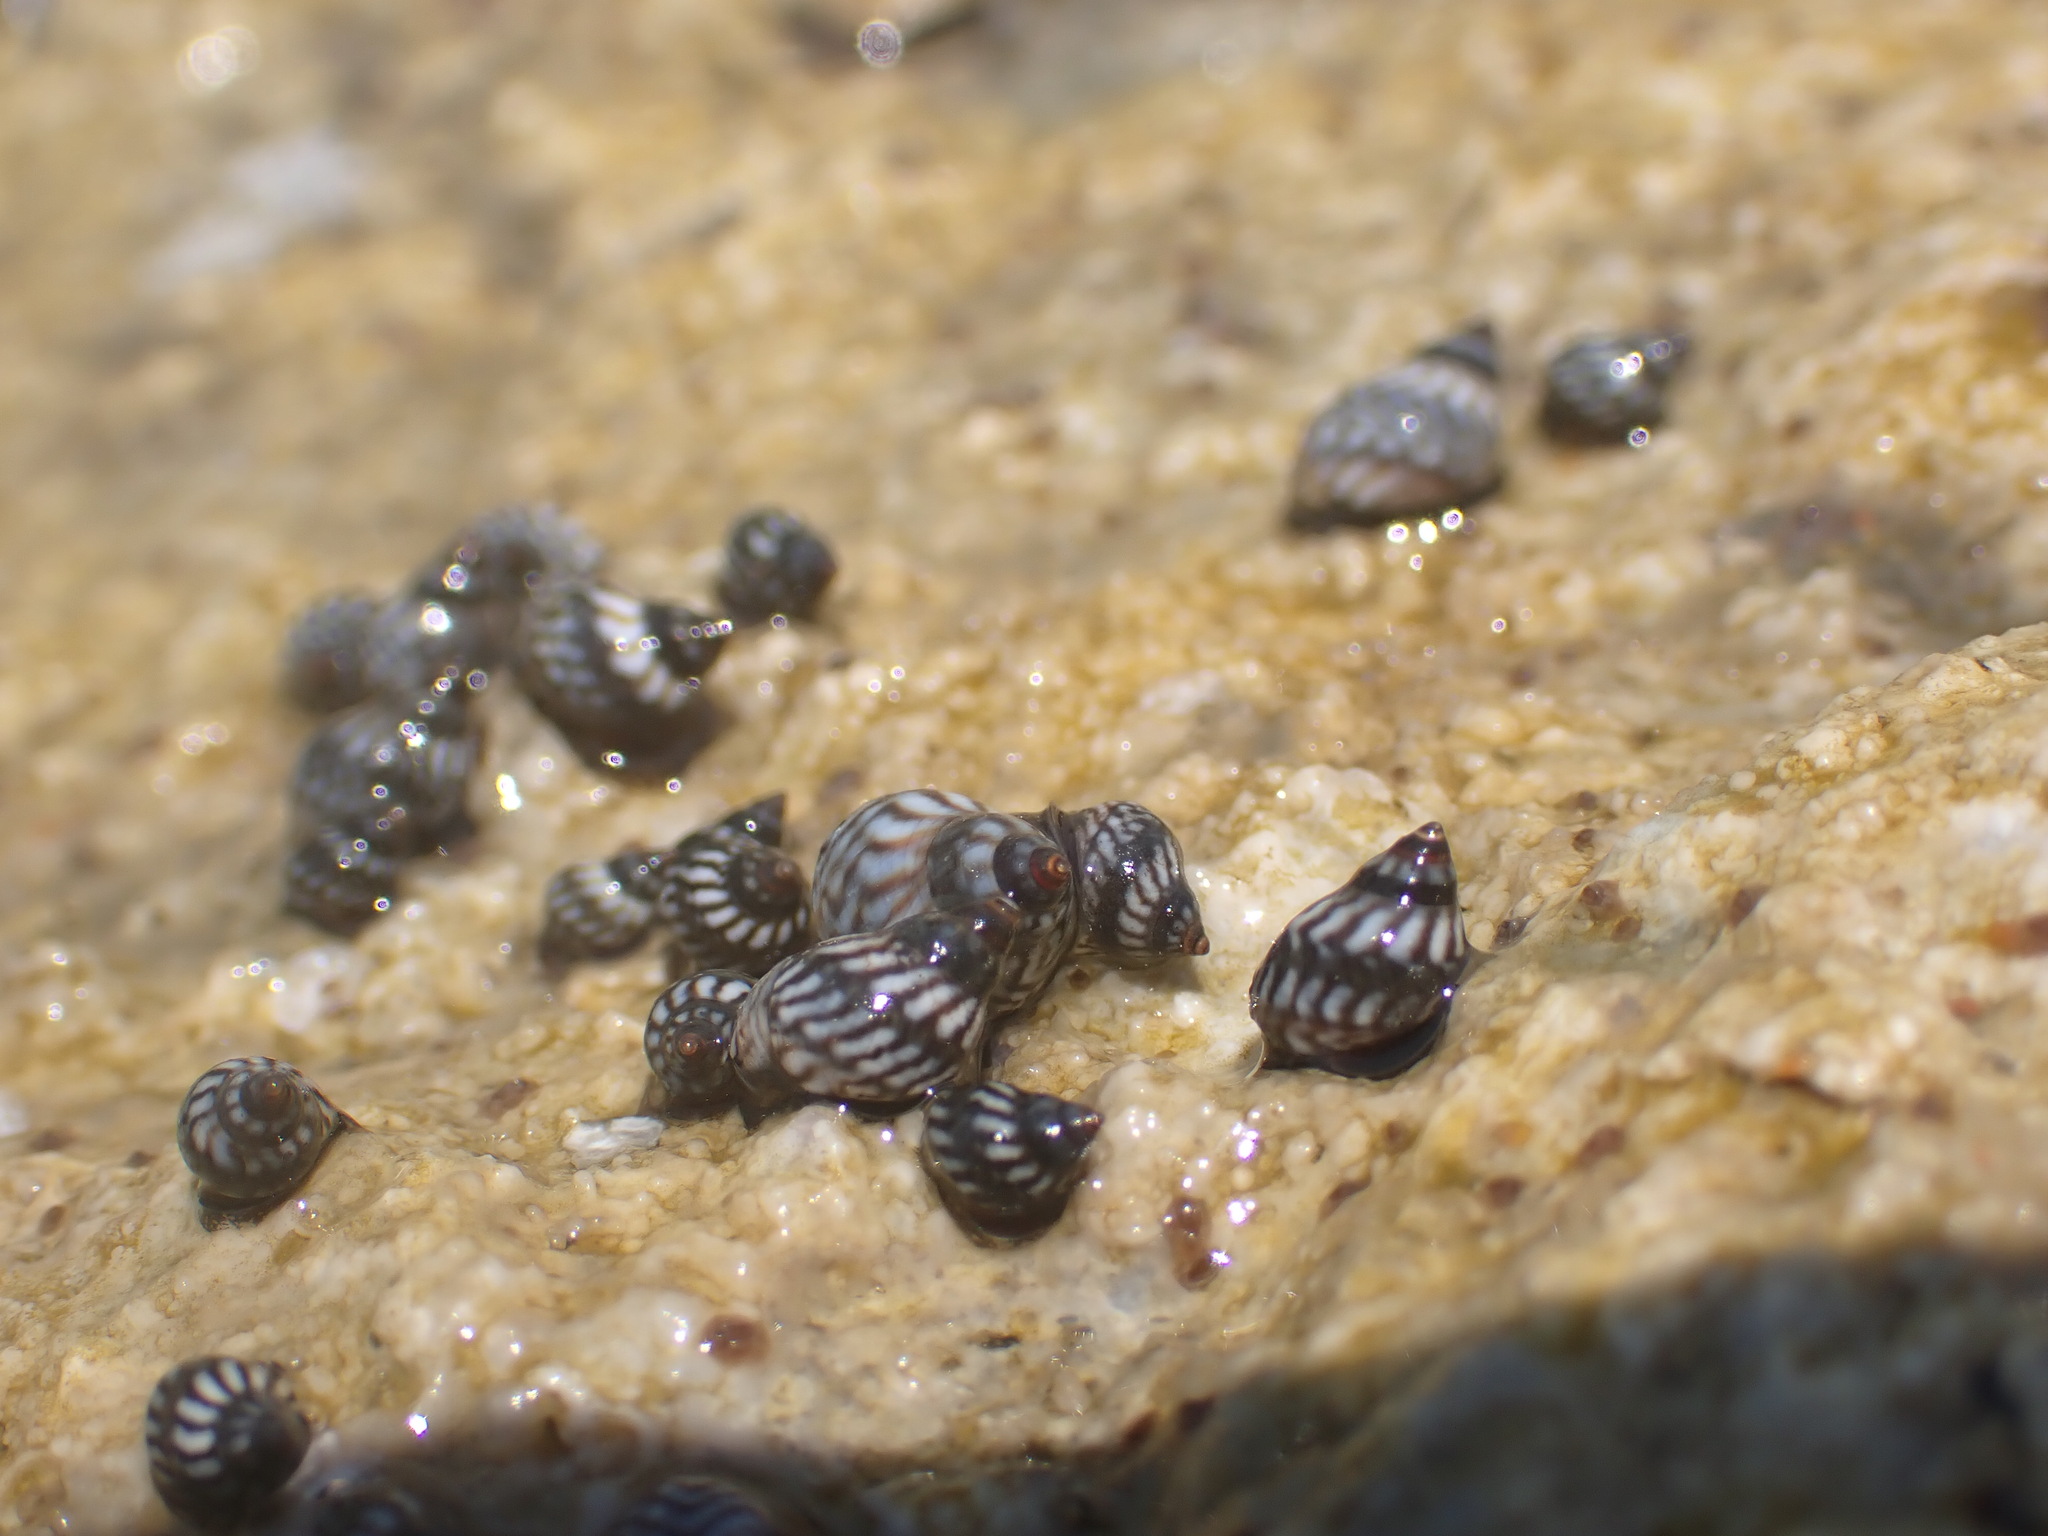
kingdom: Animalia
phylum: Mollusca
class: Gastropoda
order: Littorinimorpha
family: Littorinidae
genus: Echinolittorina
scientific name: Echinolittorina placida
